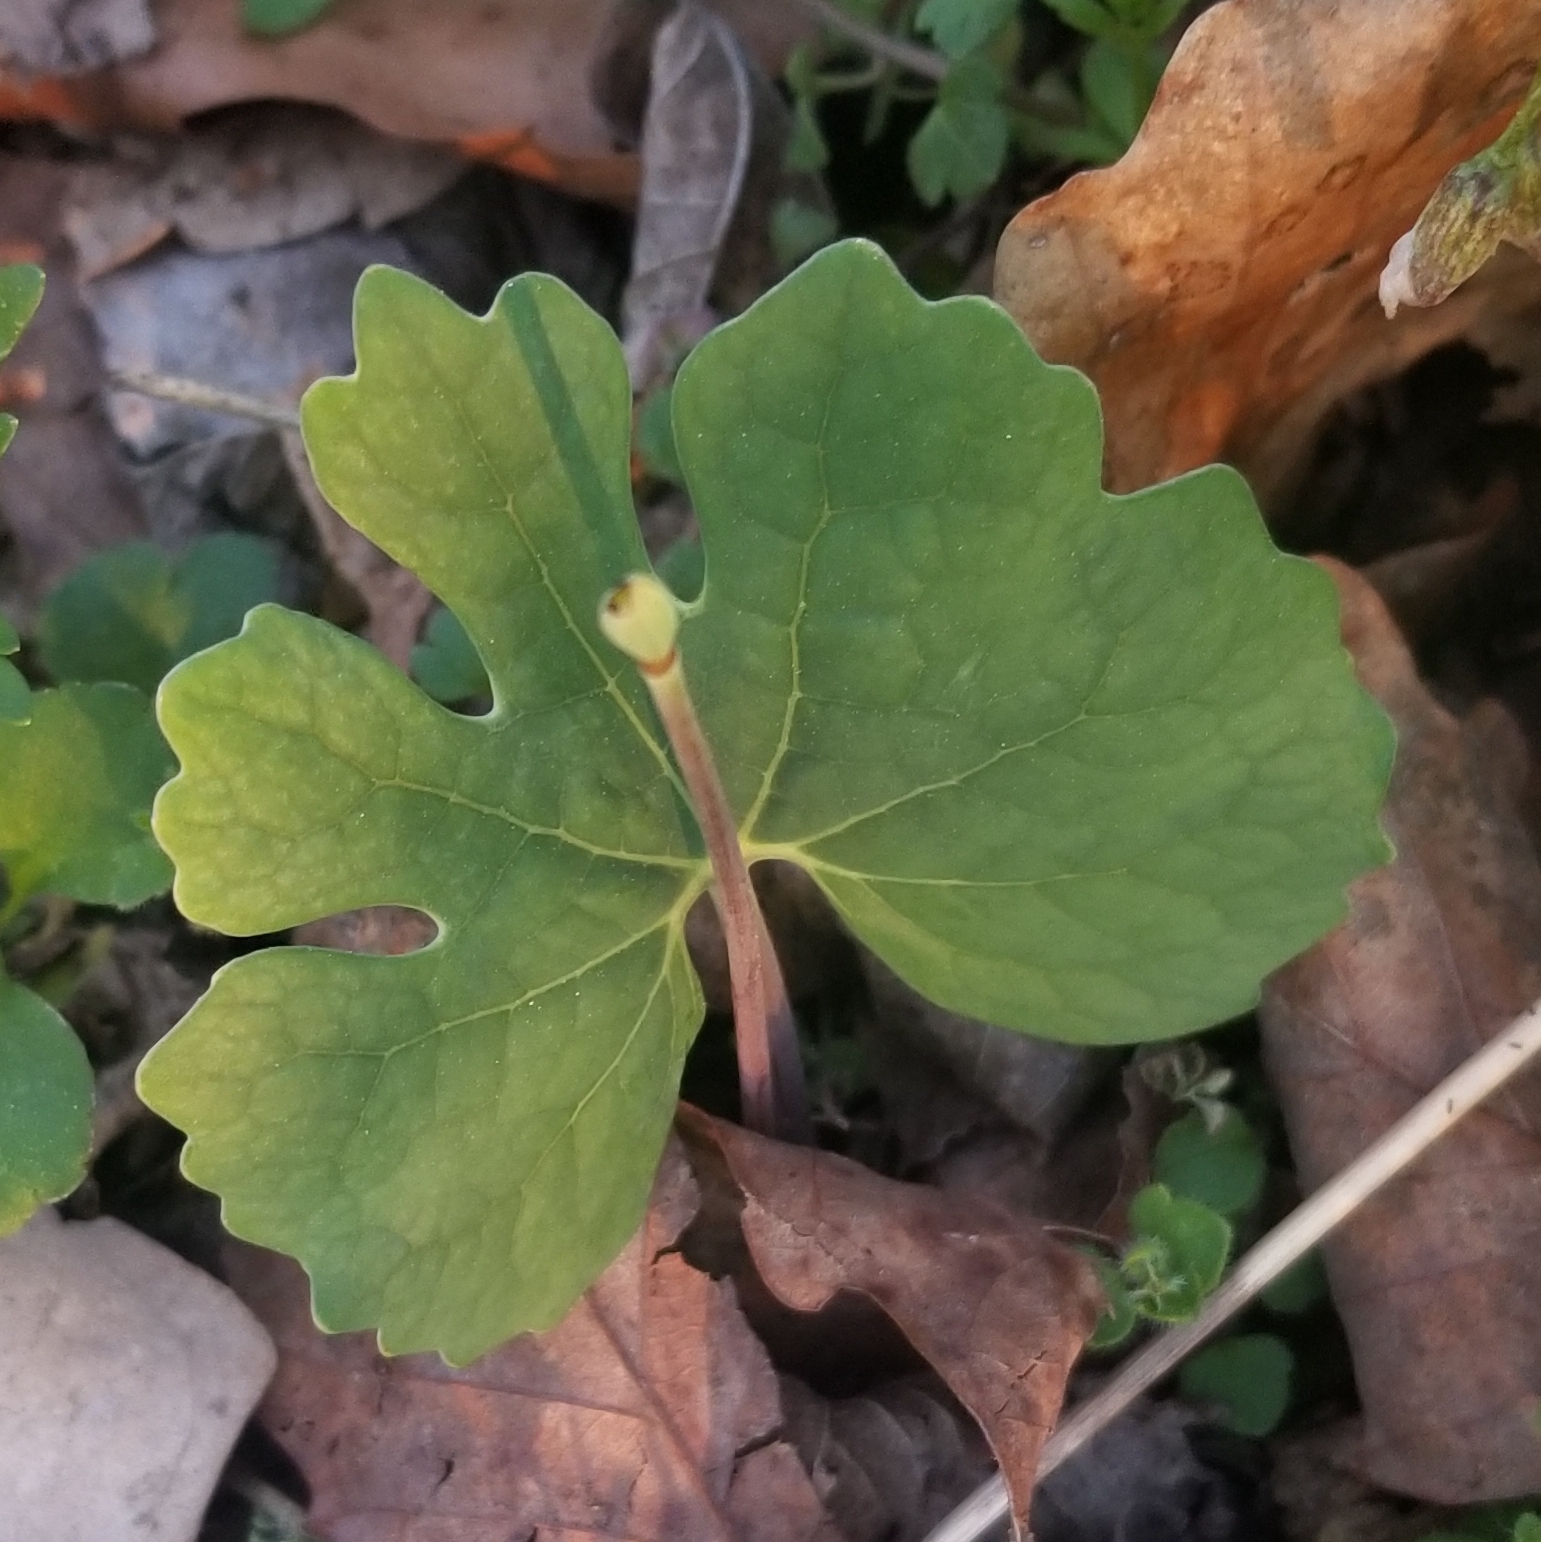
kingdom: Plantae
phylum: Tracheophyta
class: Magnoliopsida
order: Ranunculales
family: Papaveraceae
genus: Sanguinaria
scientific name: Sanguinaria canadensis
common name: Bloodroot
